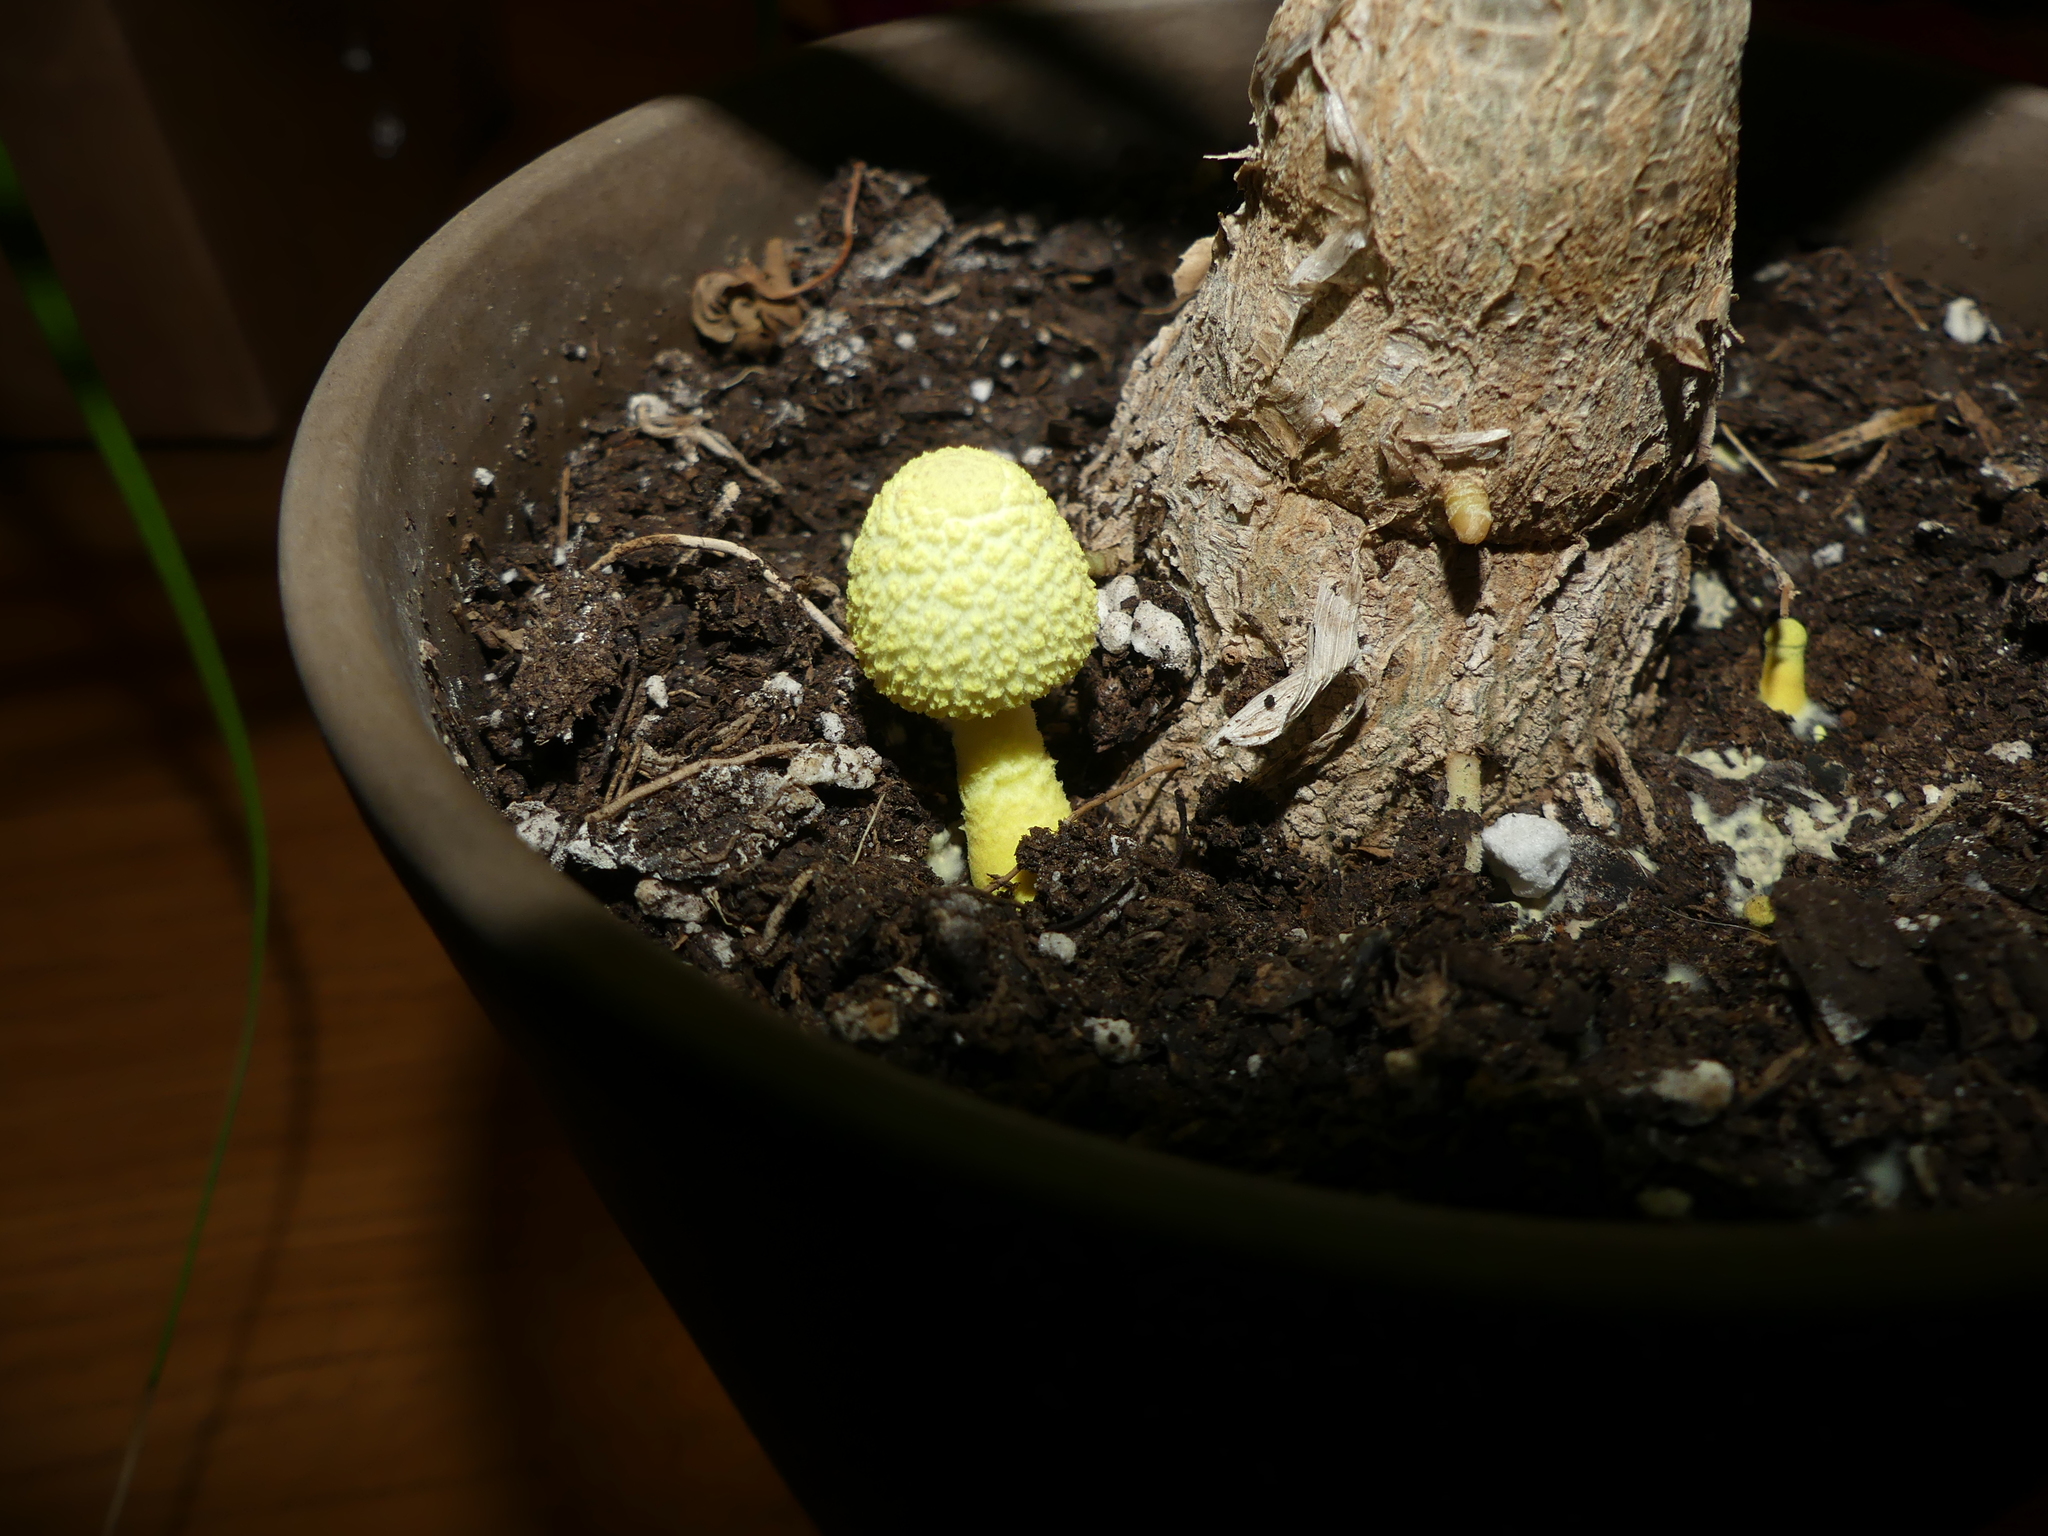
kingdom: Fungi
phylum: Basidiomycota
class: Agaricomycetes
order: Agaricales
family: Agaricaceae
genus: Leucocoprinus
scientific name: Leucocoprinus birnbaumii
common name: Plantpot dapperling
